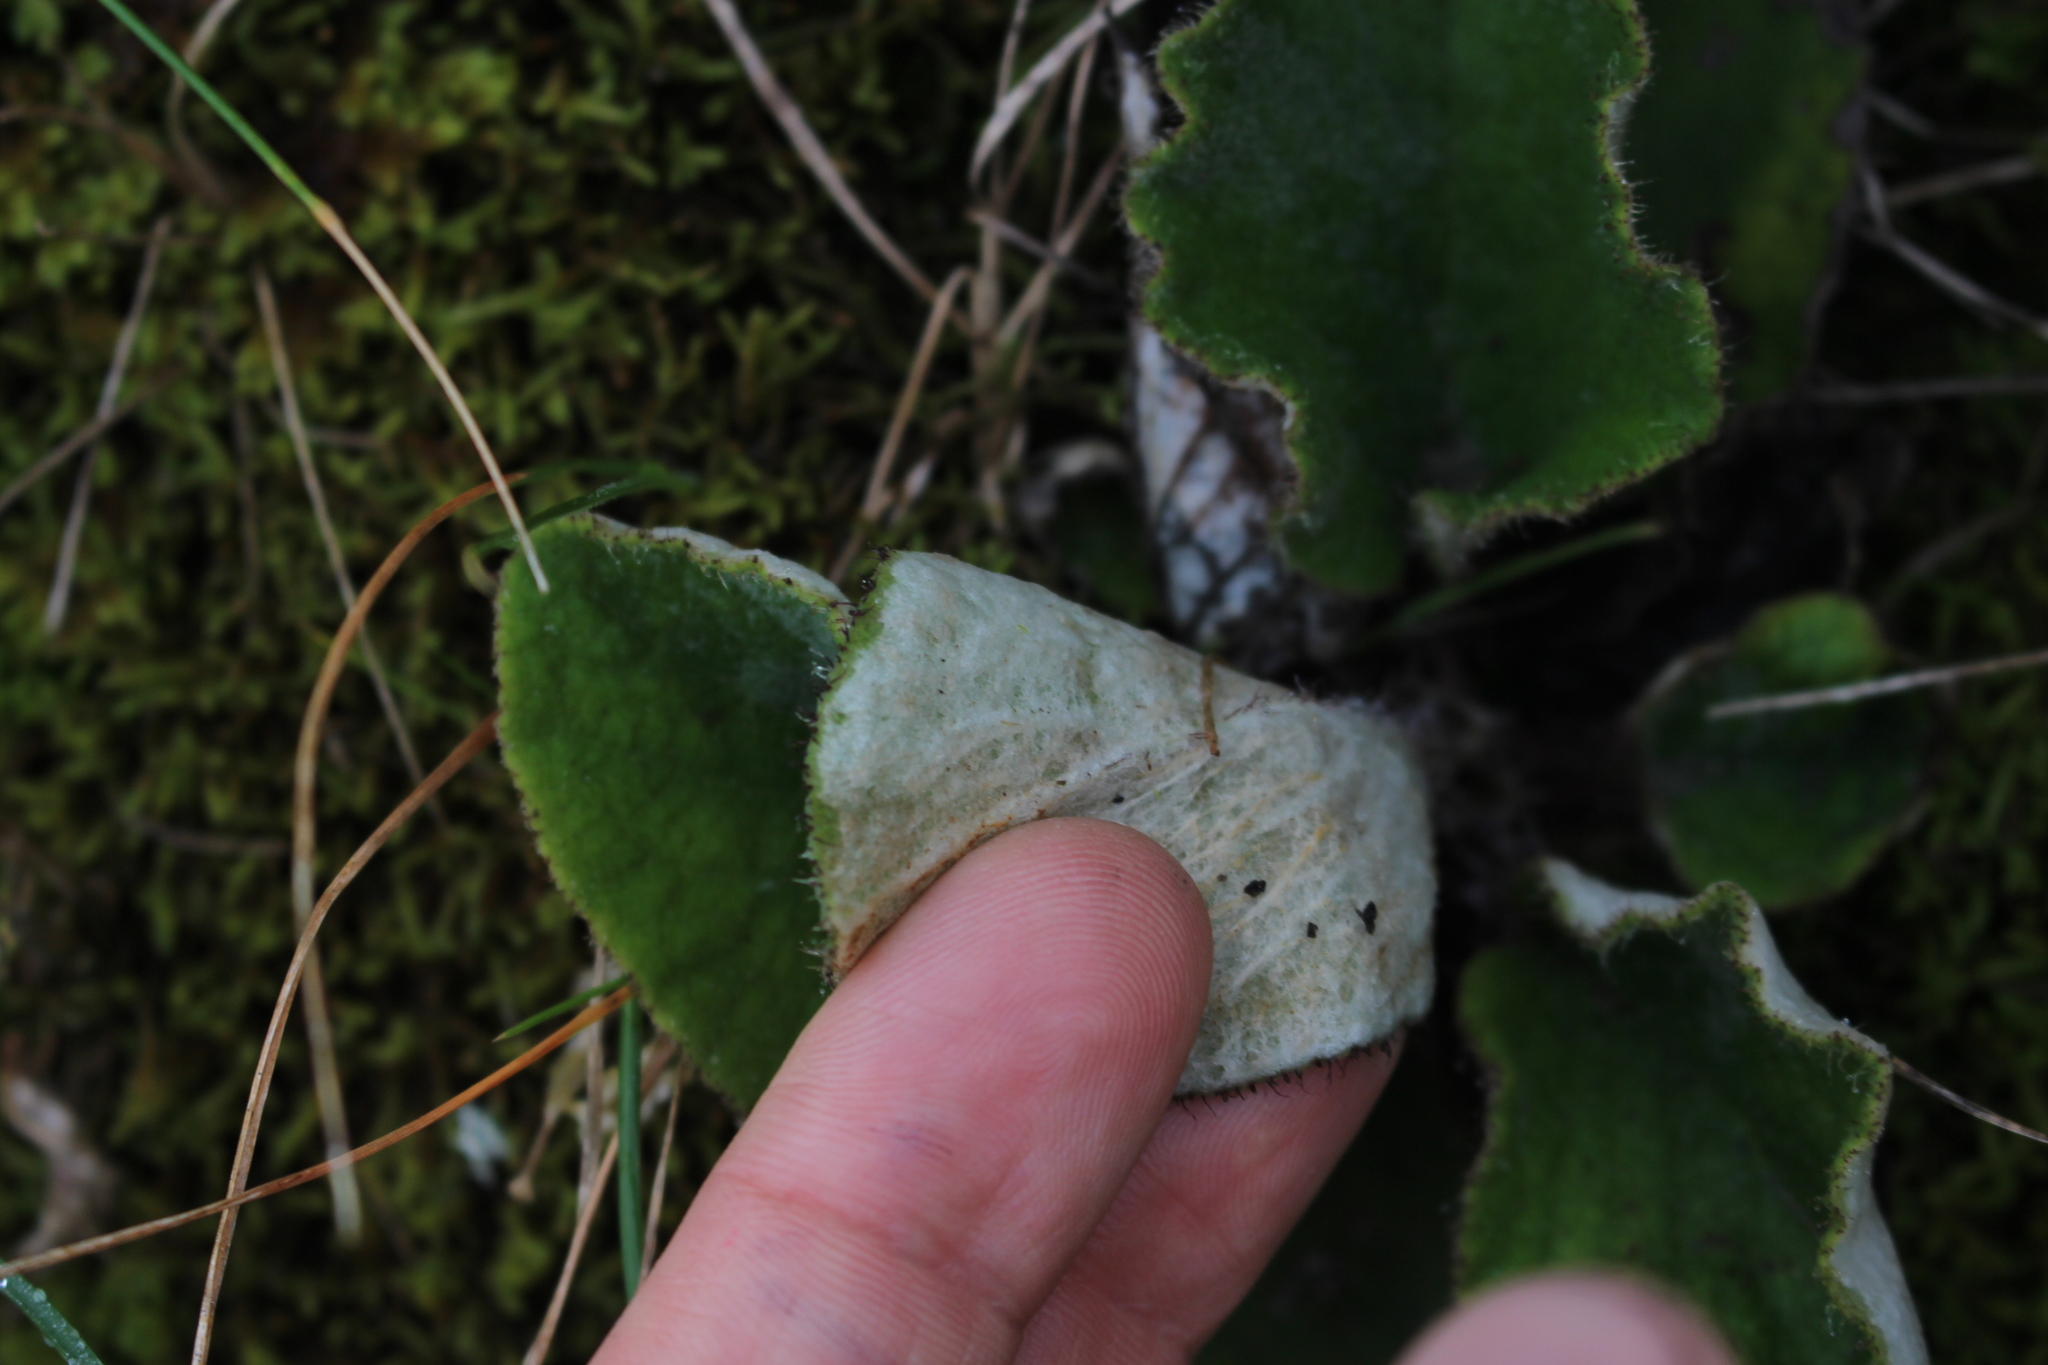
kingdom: Plantae
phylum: Tracheophyta
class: Magnoliopsida
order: Asterales
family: Asteraceae
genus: Brachyglottis
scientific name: Brachyglottis lagopus
